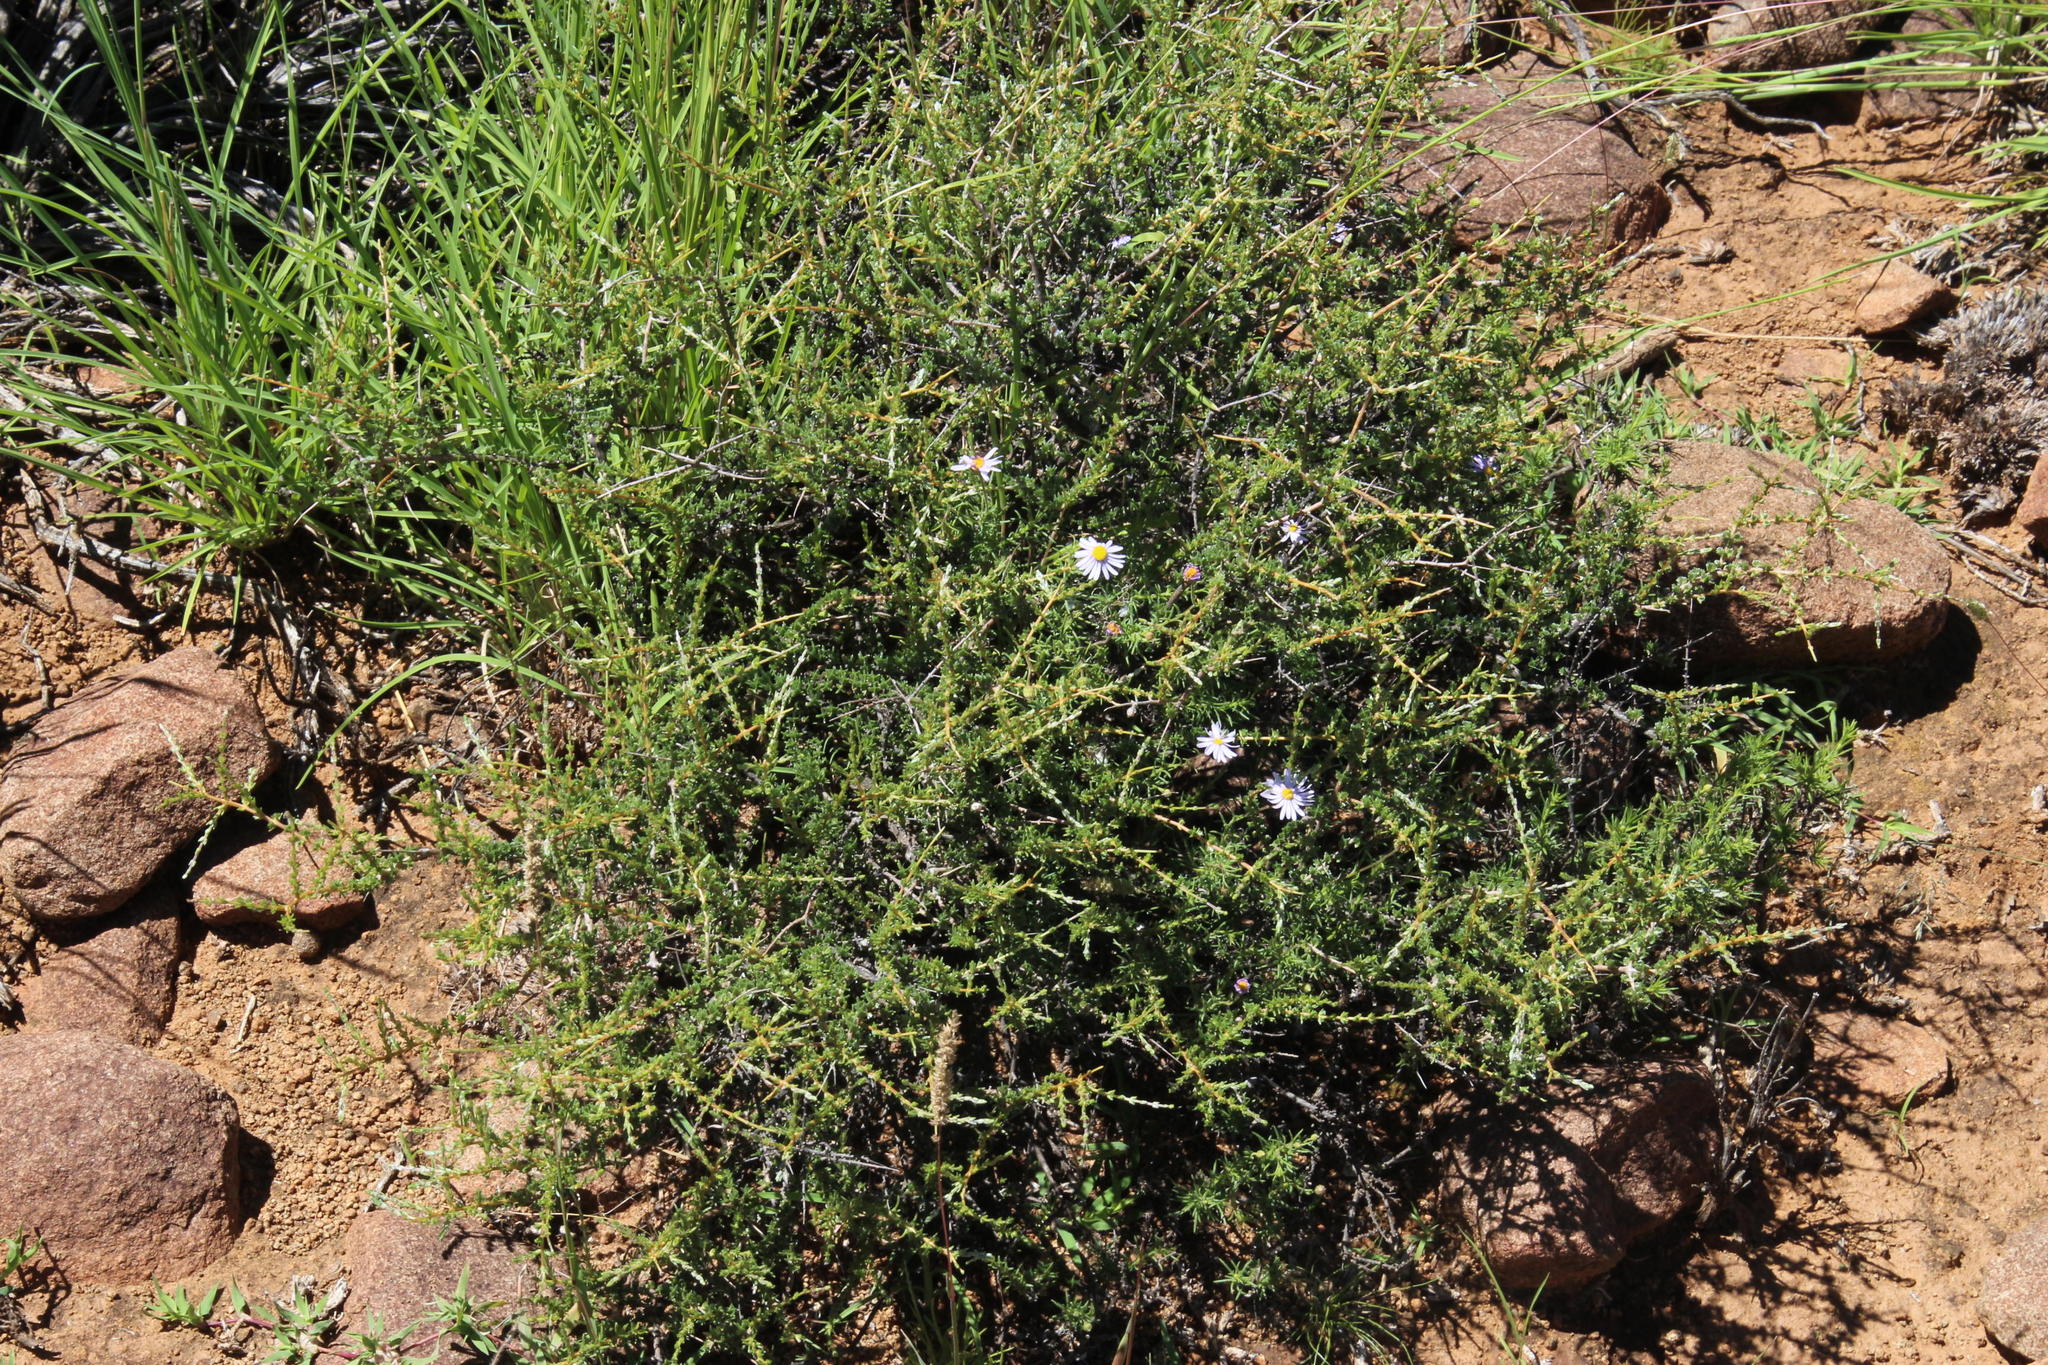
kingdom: Plantae
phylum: Tracheophyta
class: Magnoliopsida
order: Asterales
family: Asteraceae
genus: Eriocephalus
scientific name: Eriocephalus spinescens
